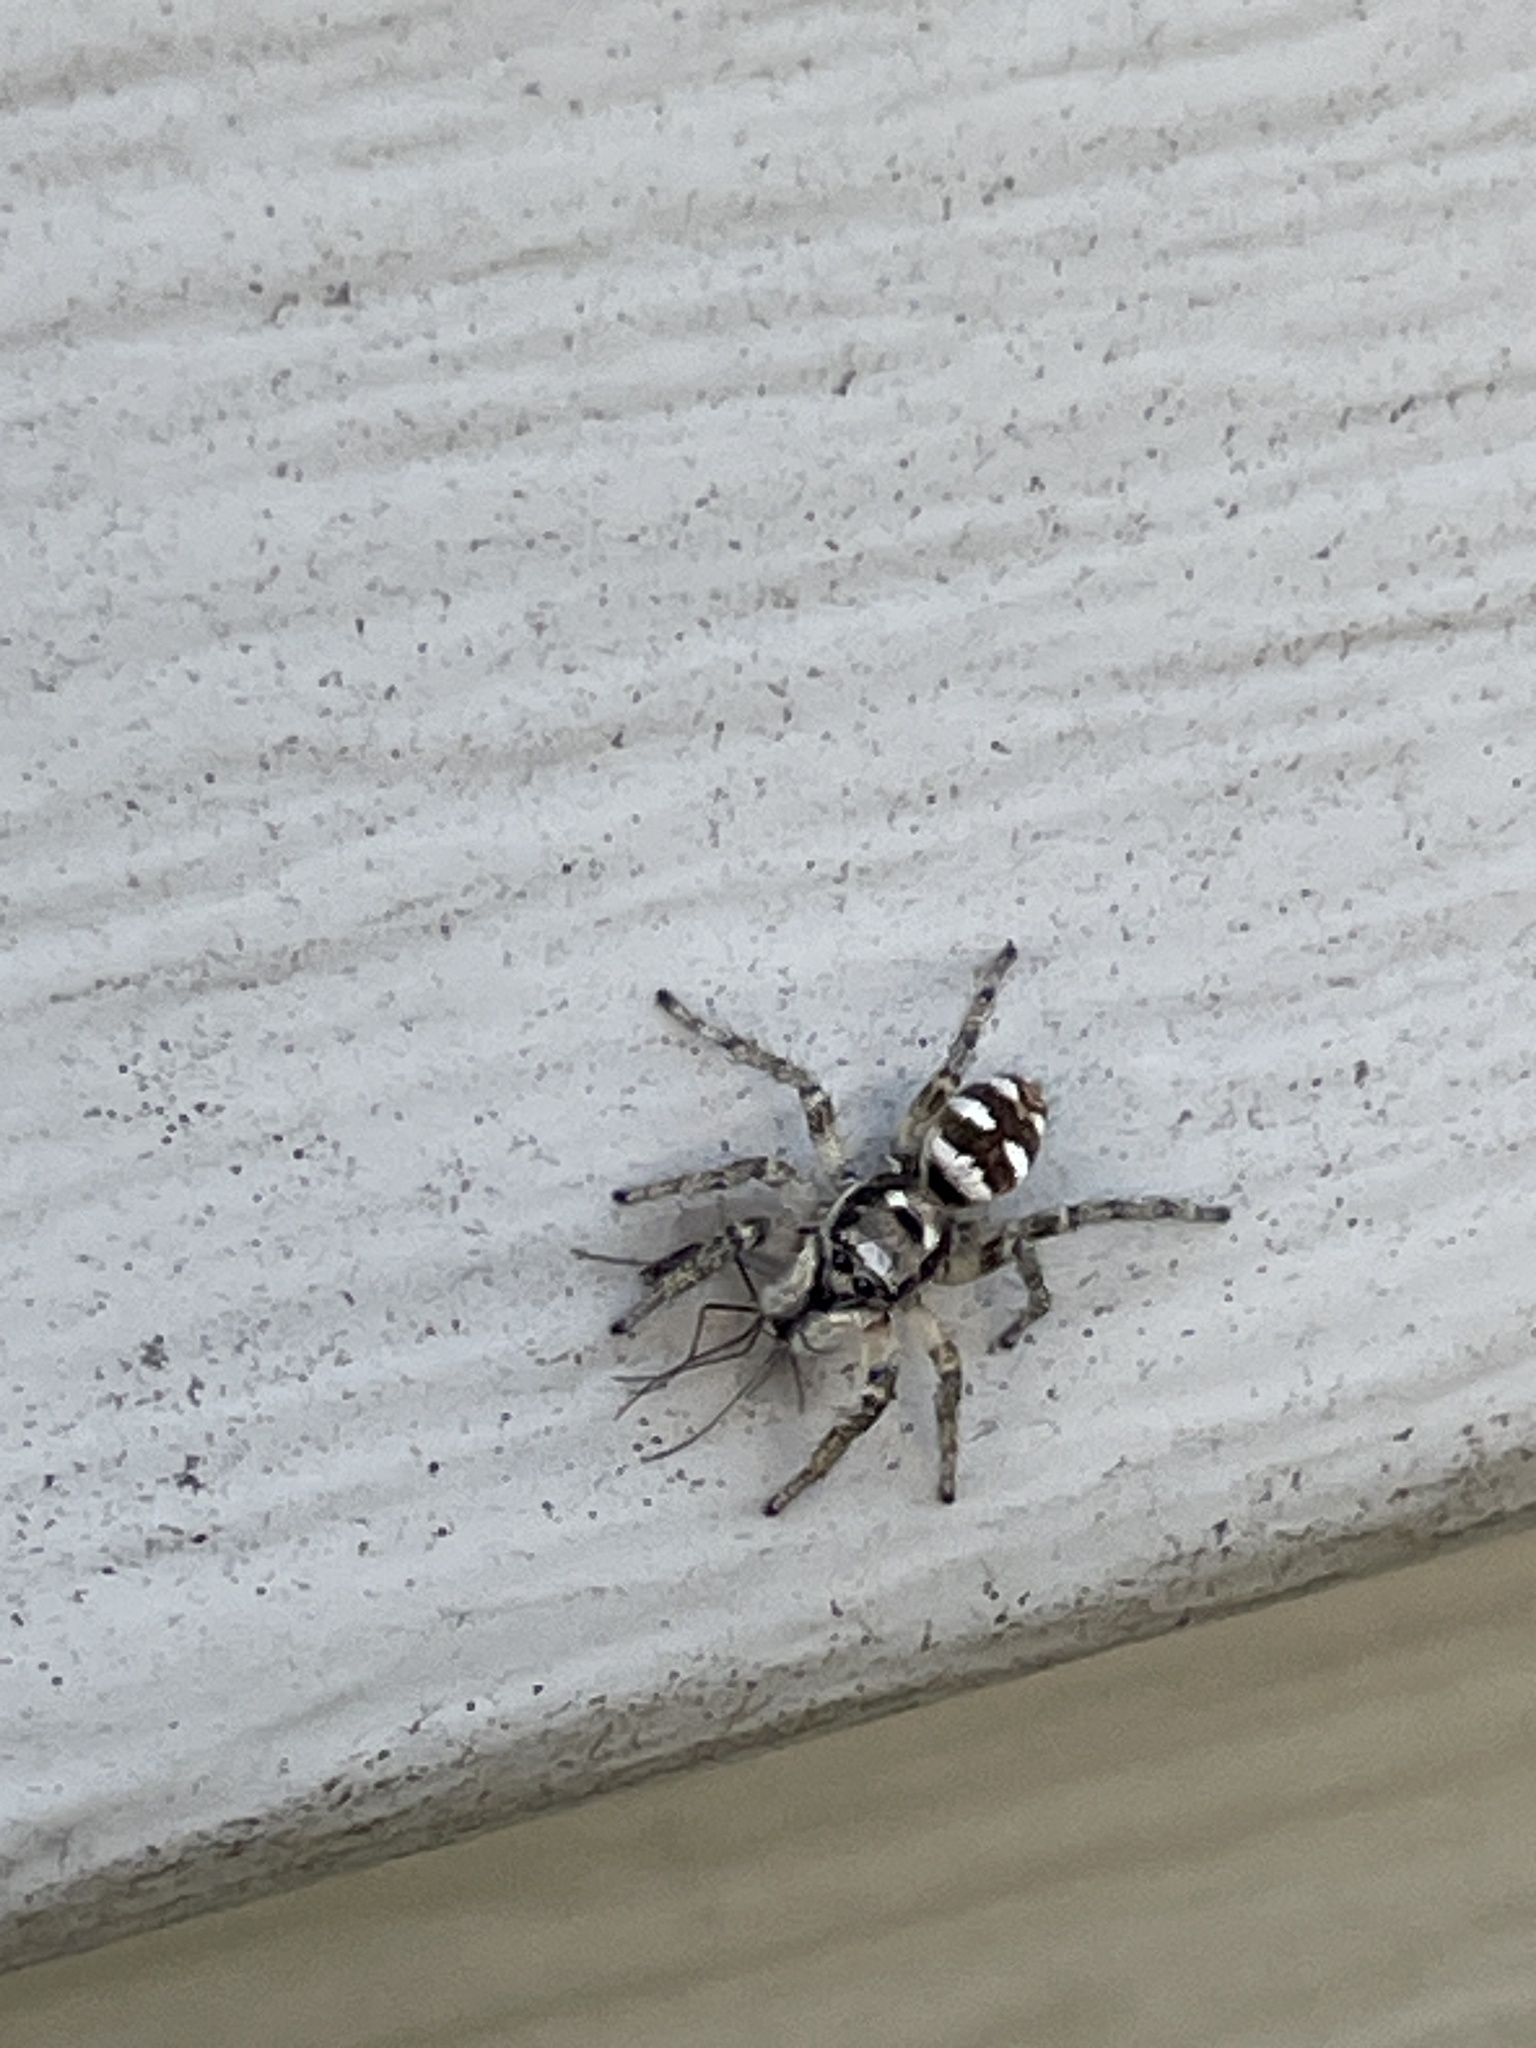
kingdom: Animalia
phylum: Arthropoda
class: Arachnida
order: Araneae
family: Salticidae
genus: Salticus
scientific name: Salticus scenicus
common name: Zebra jumper
